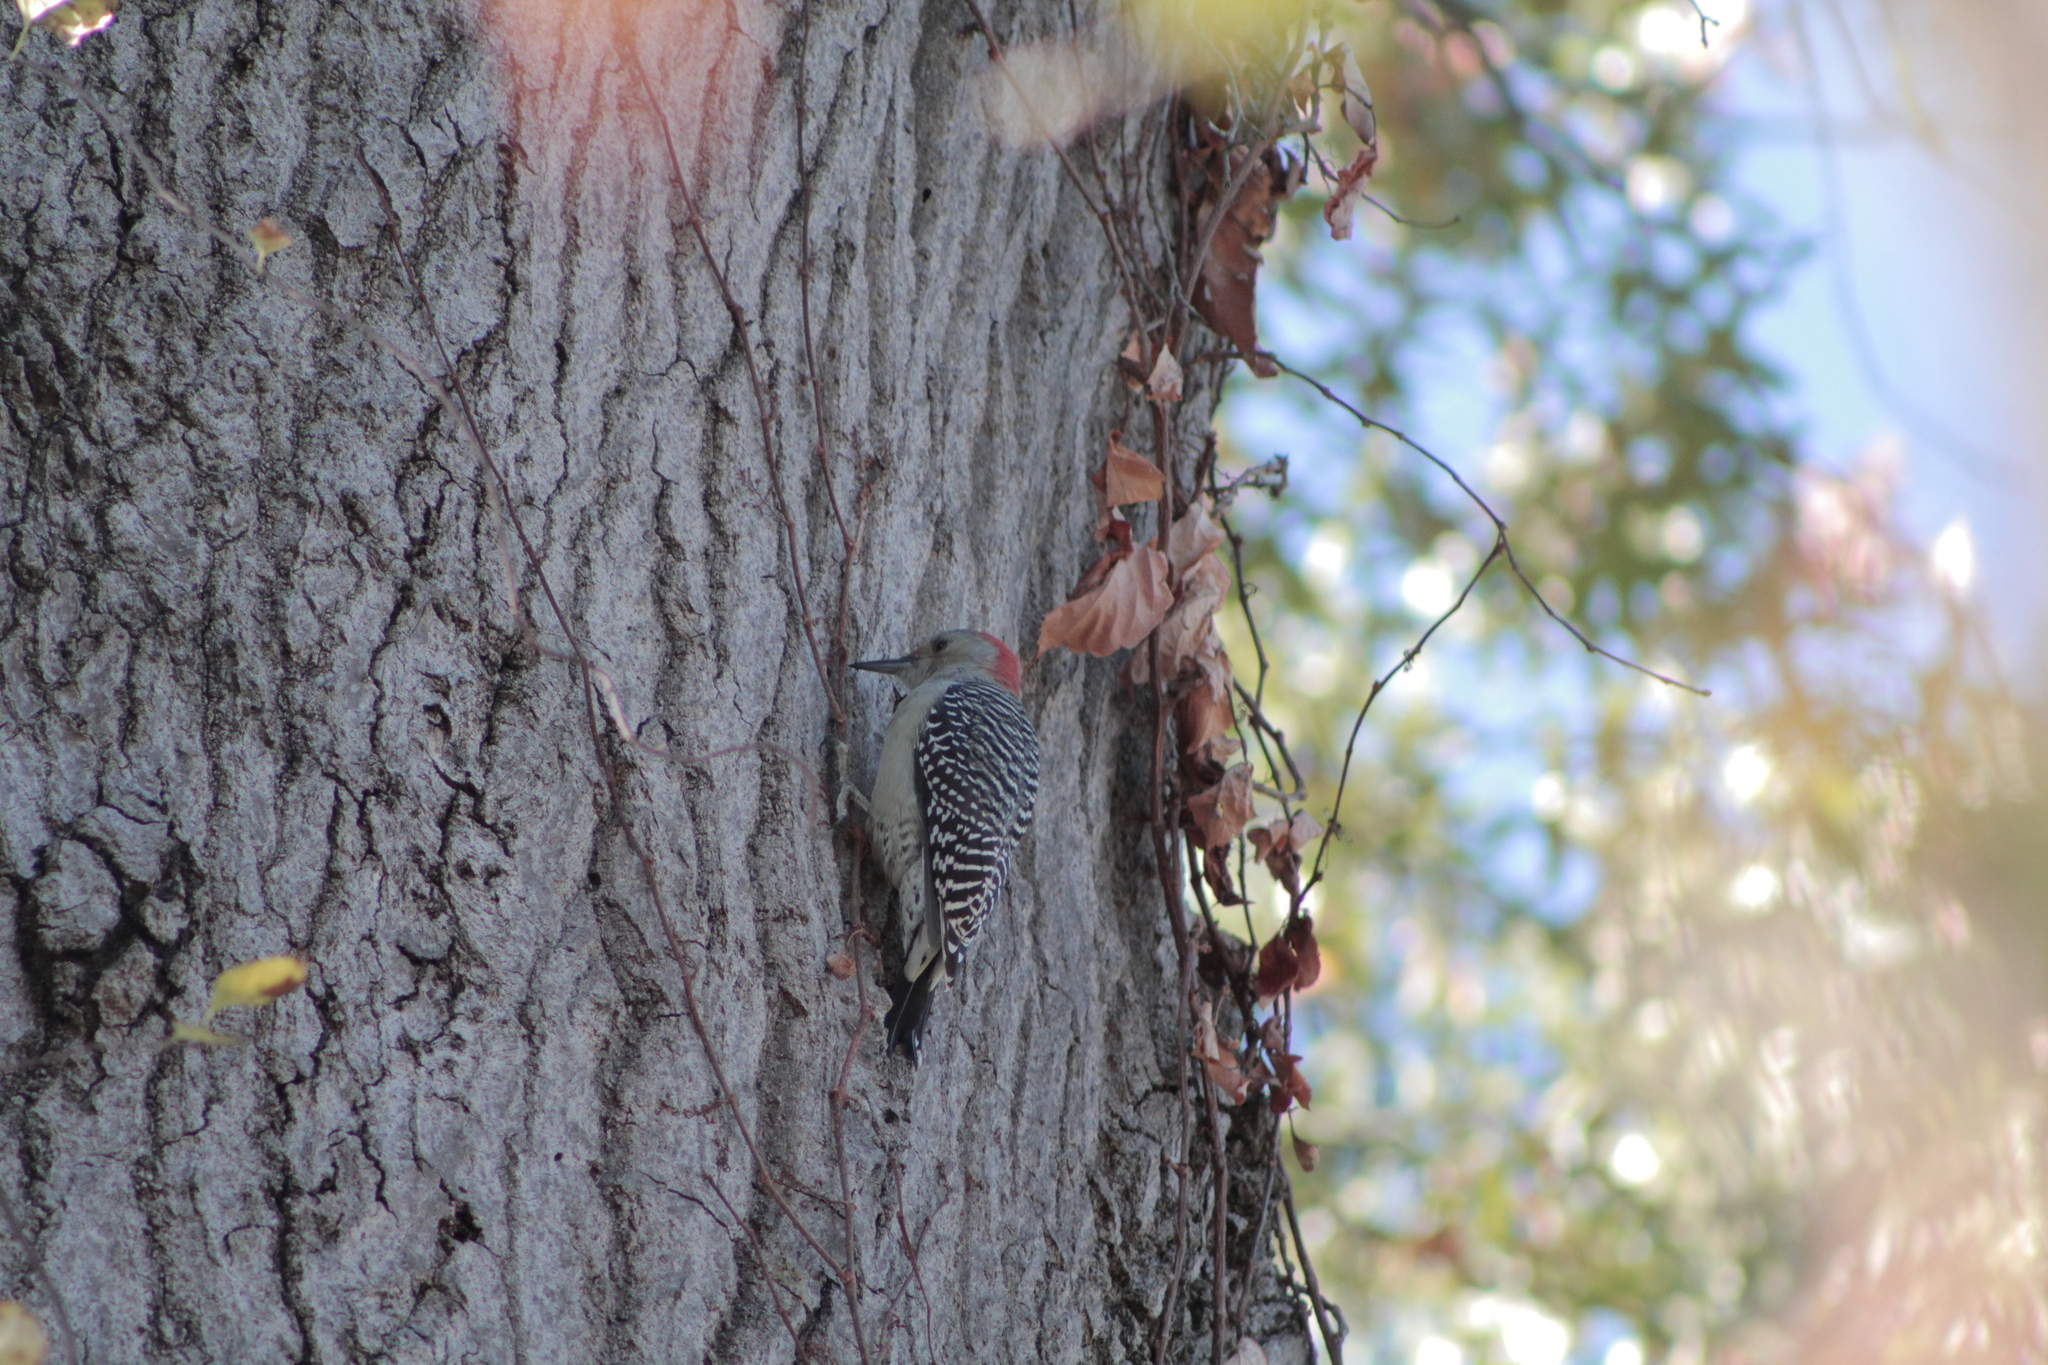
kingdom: Animalia
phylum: Chordata
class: Aves
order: Piciformes
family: Picidae
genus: Melanerpes
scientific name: Melanerpes carolinus
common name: Red-bellied woodpecker
